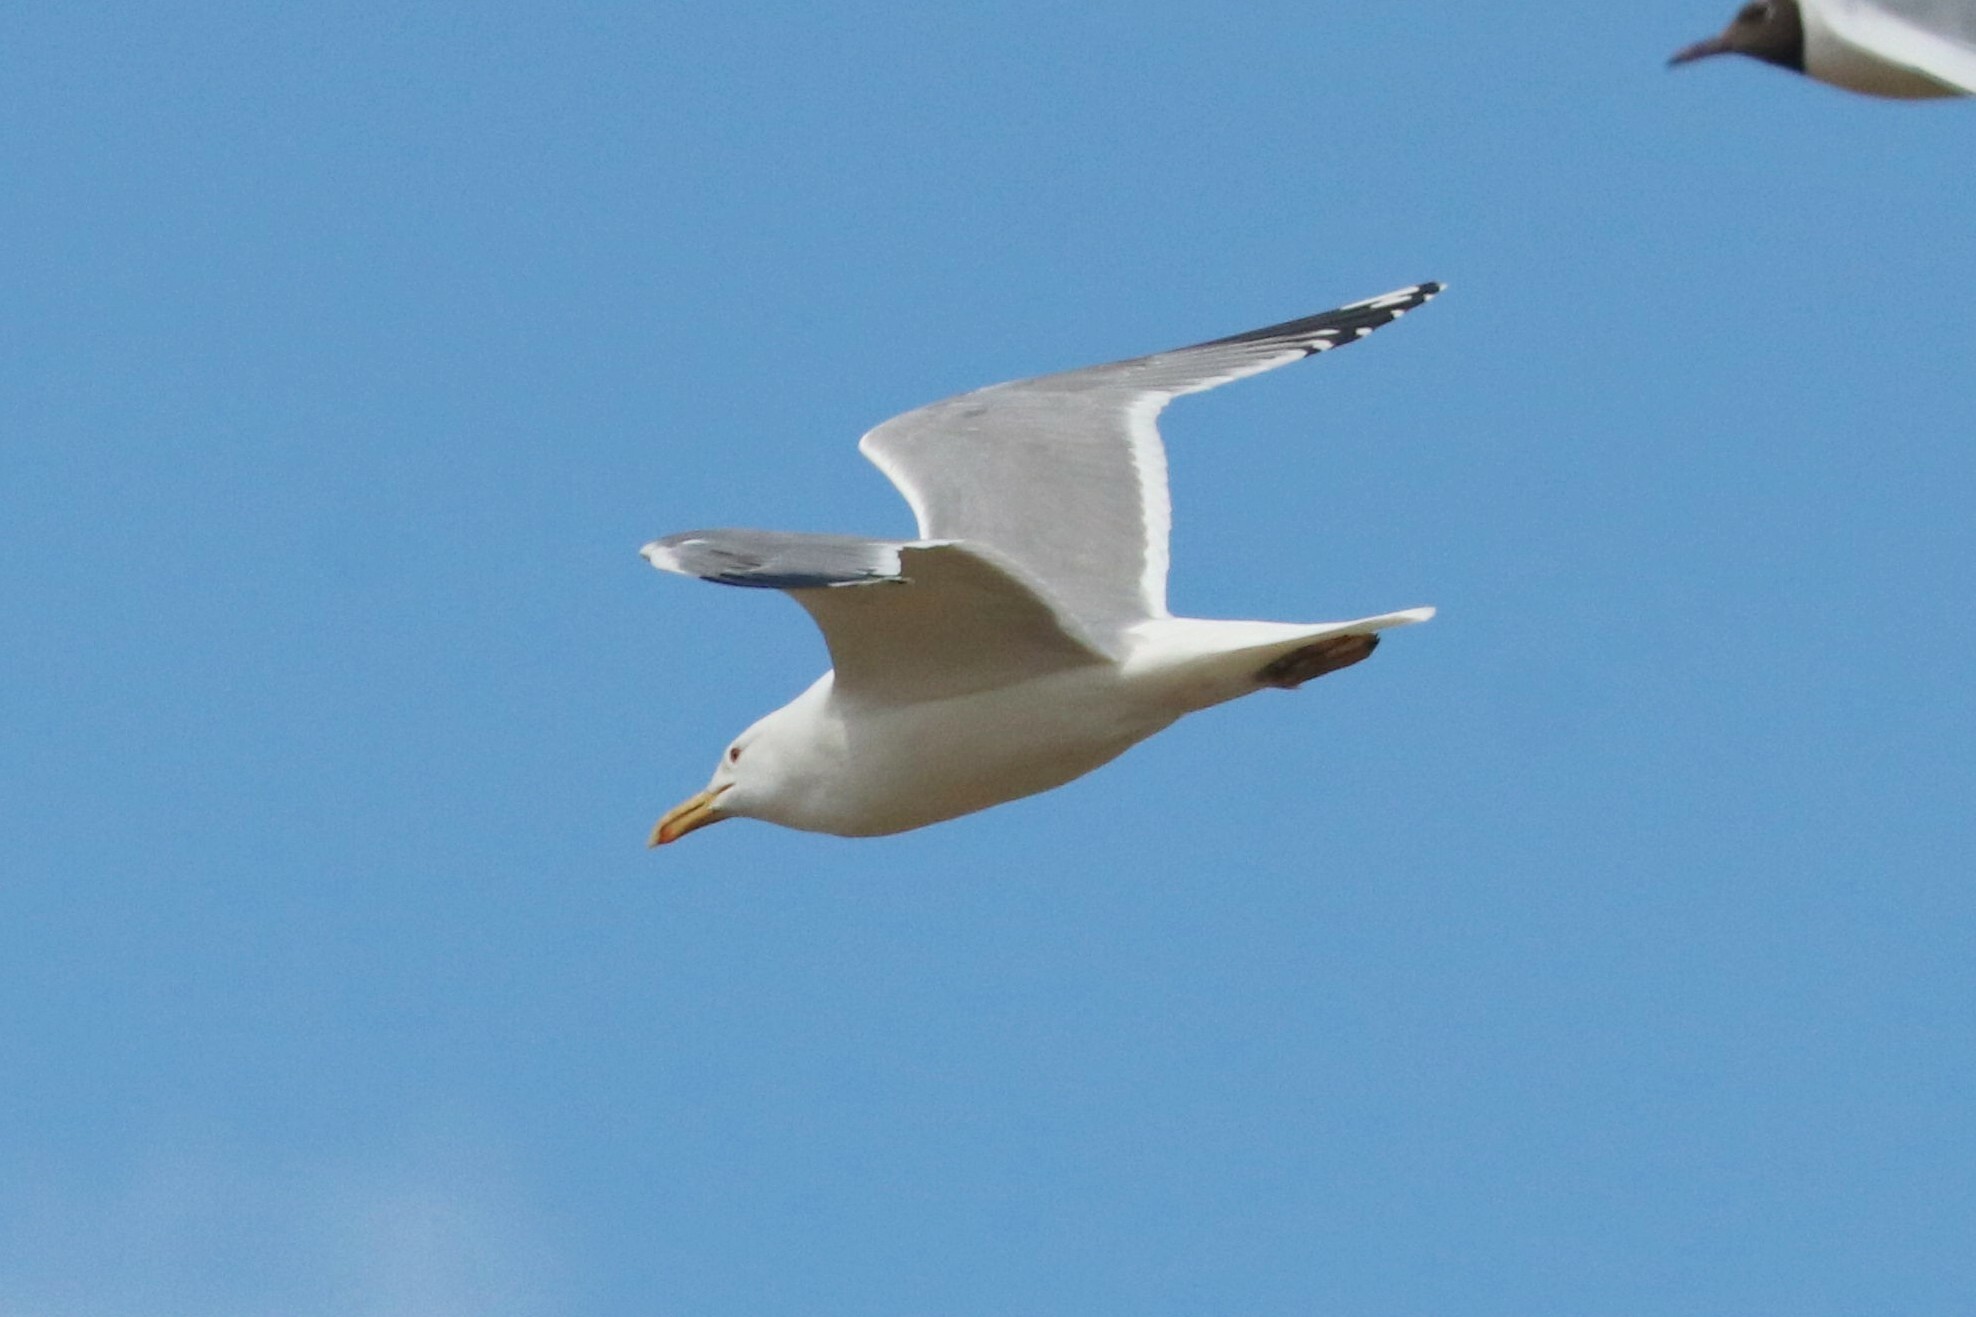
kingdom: Animalia
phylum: Chordata
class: Aves
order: Charadriiformes
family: Laridae
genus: Larus
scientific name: Larus cachinnans
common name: Caspian gull
